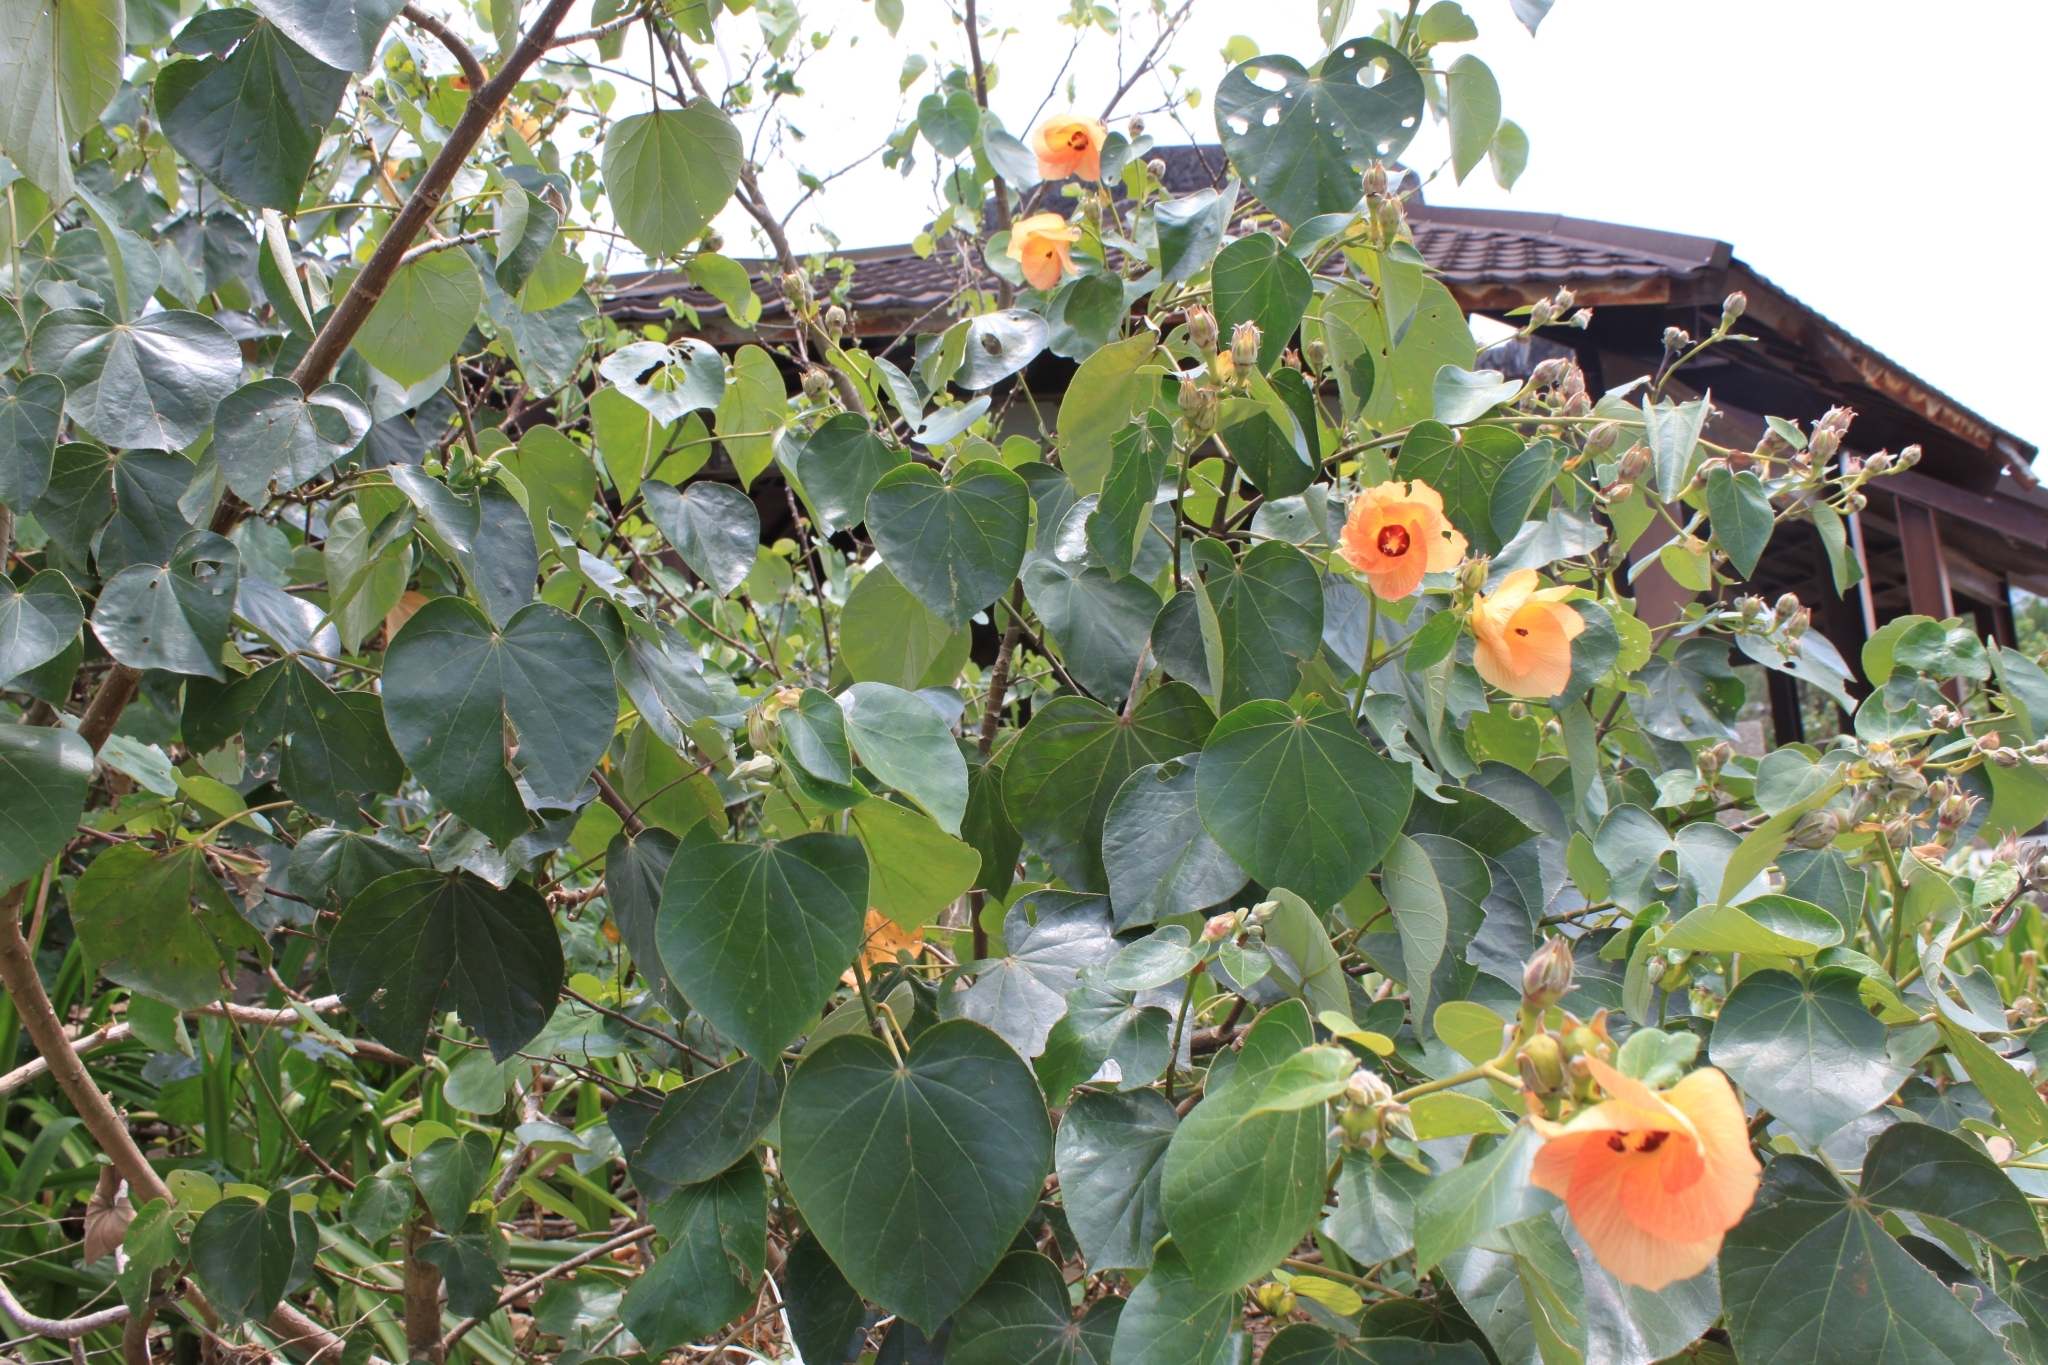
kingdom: Plantae
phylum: Tracheophyta
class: Magnoliopsida
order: Malvales
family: Malvaceae
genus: Talipariti
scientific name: Talipariti tiliaceum
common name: Sea hibiscus
